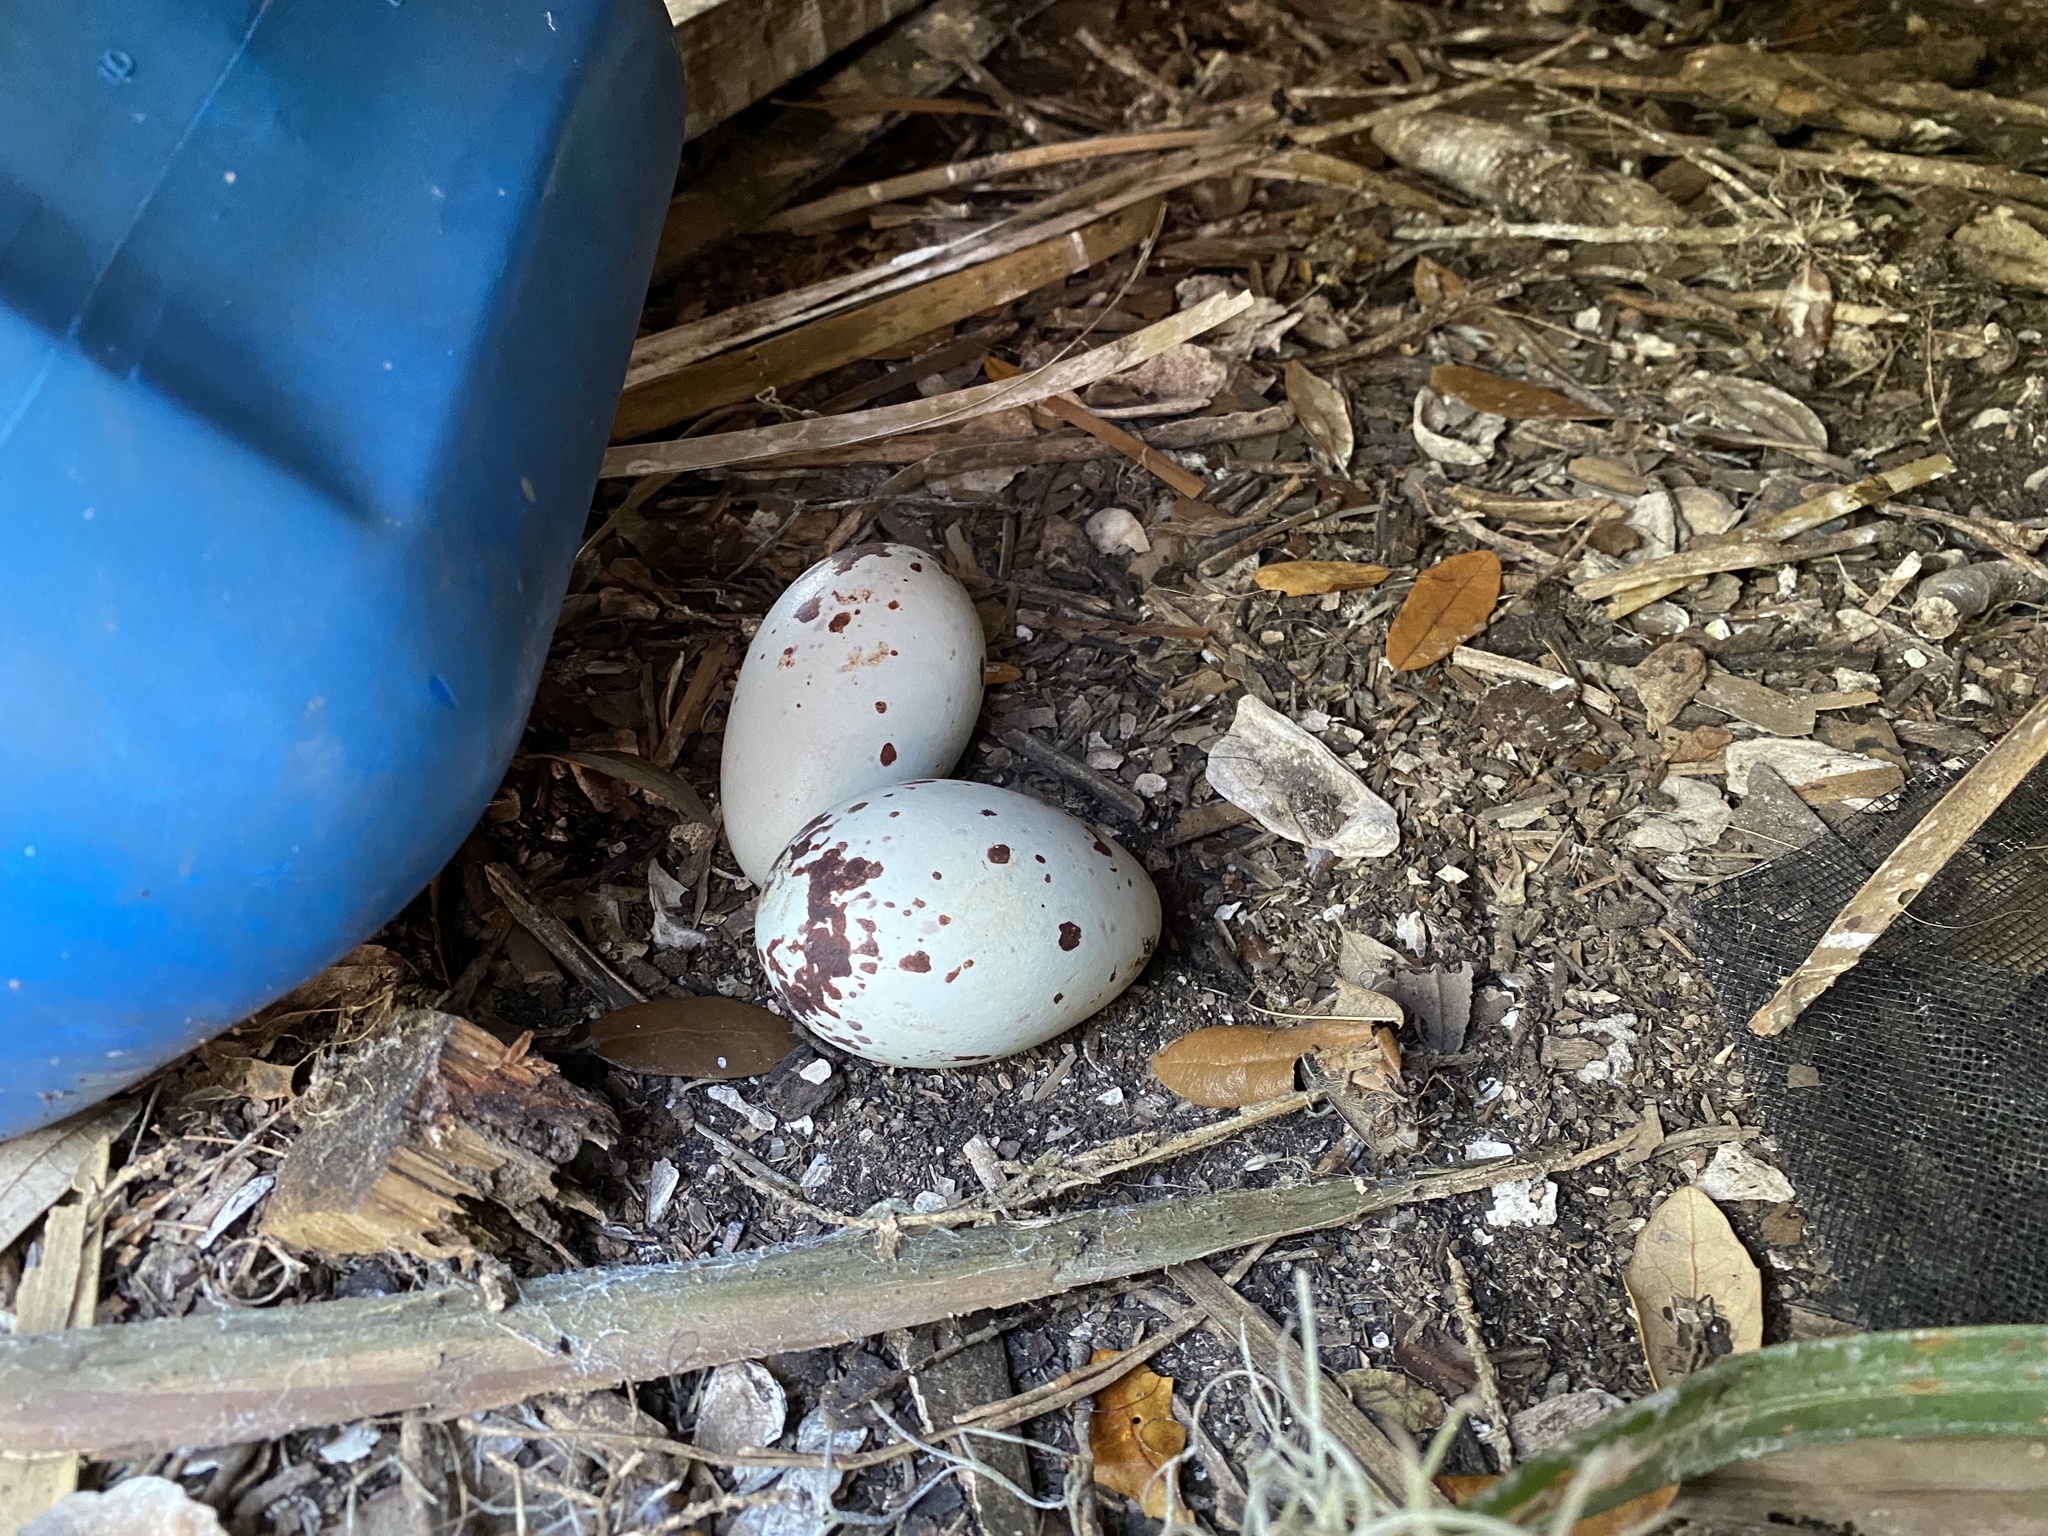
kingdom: Animalia
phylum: Chordata
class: Aves
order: Accipitriformes
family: Cathartidae
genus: Coragyps
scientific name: Coragyps atratus
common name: Black vulture
